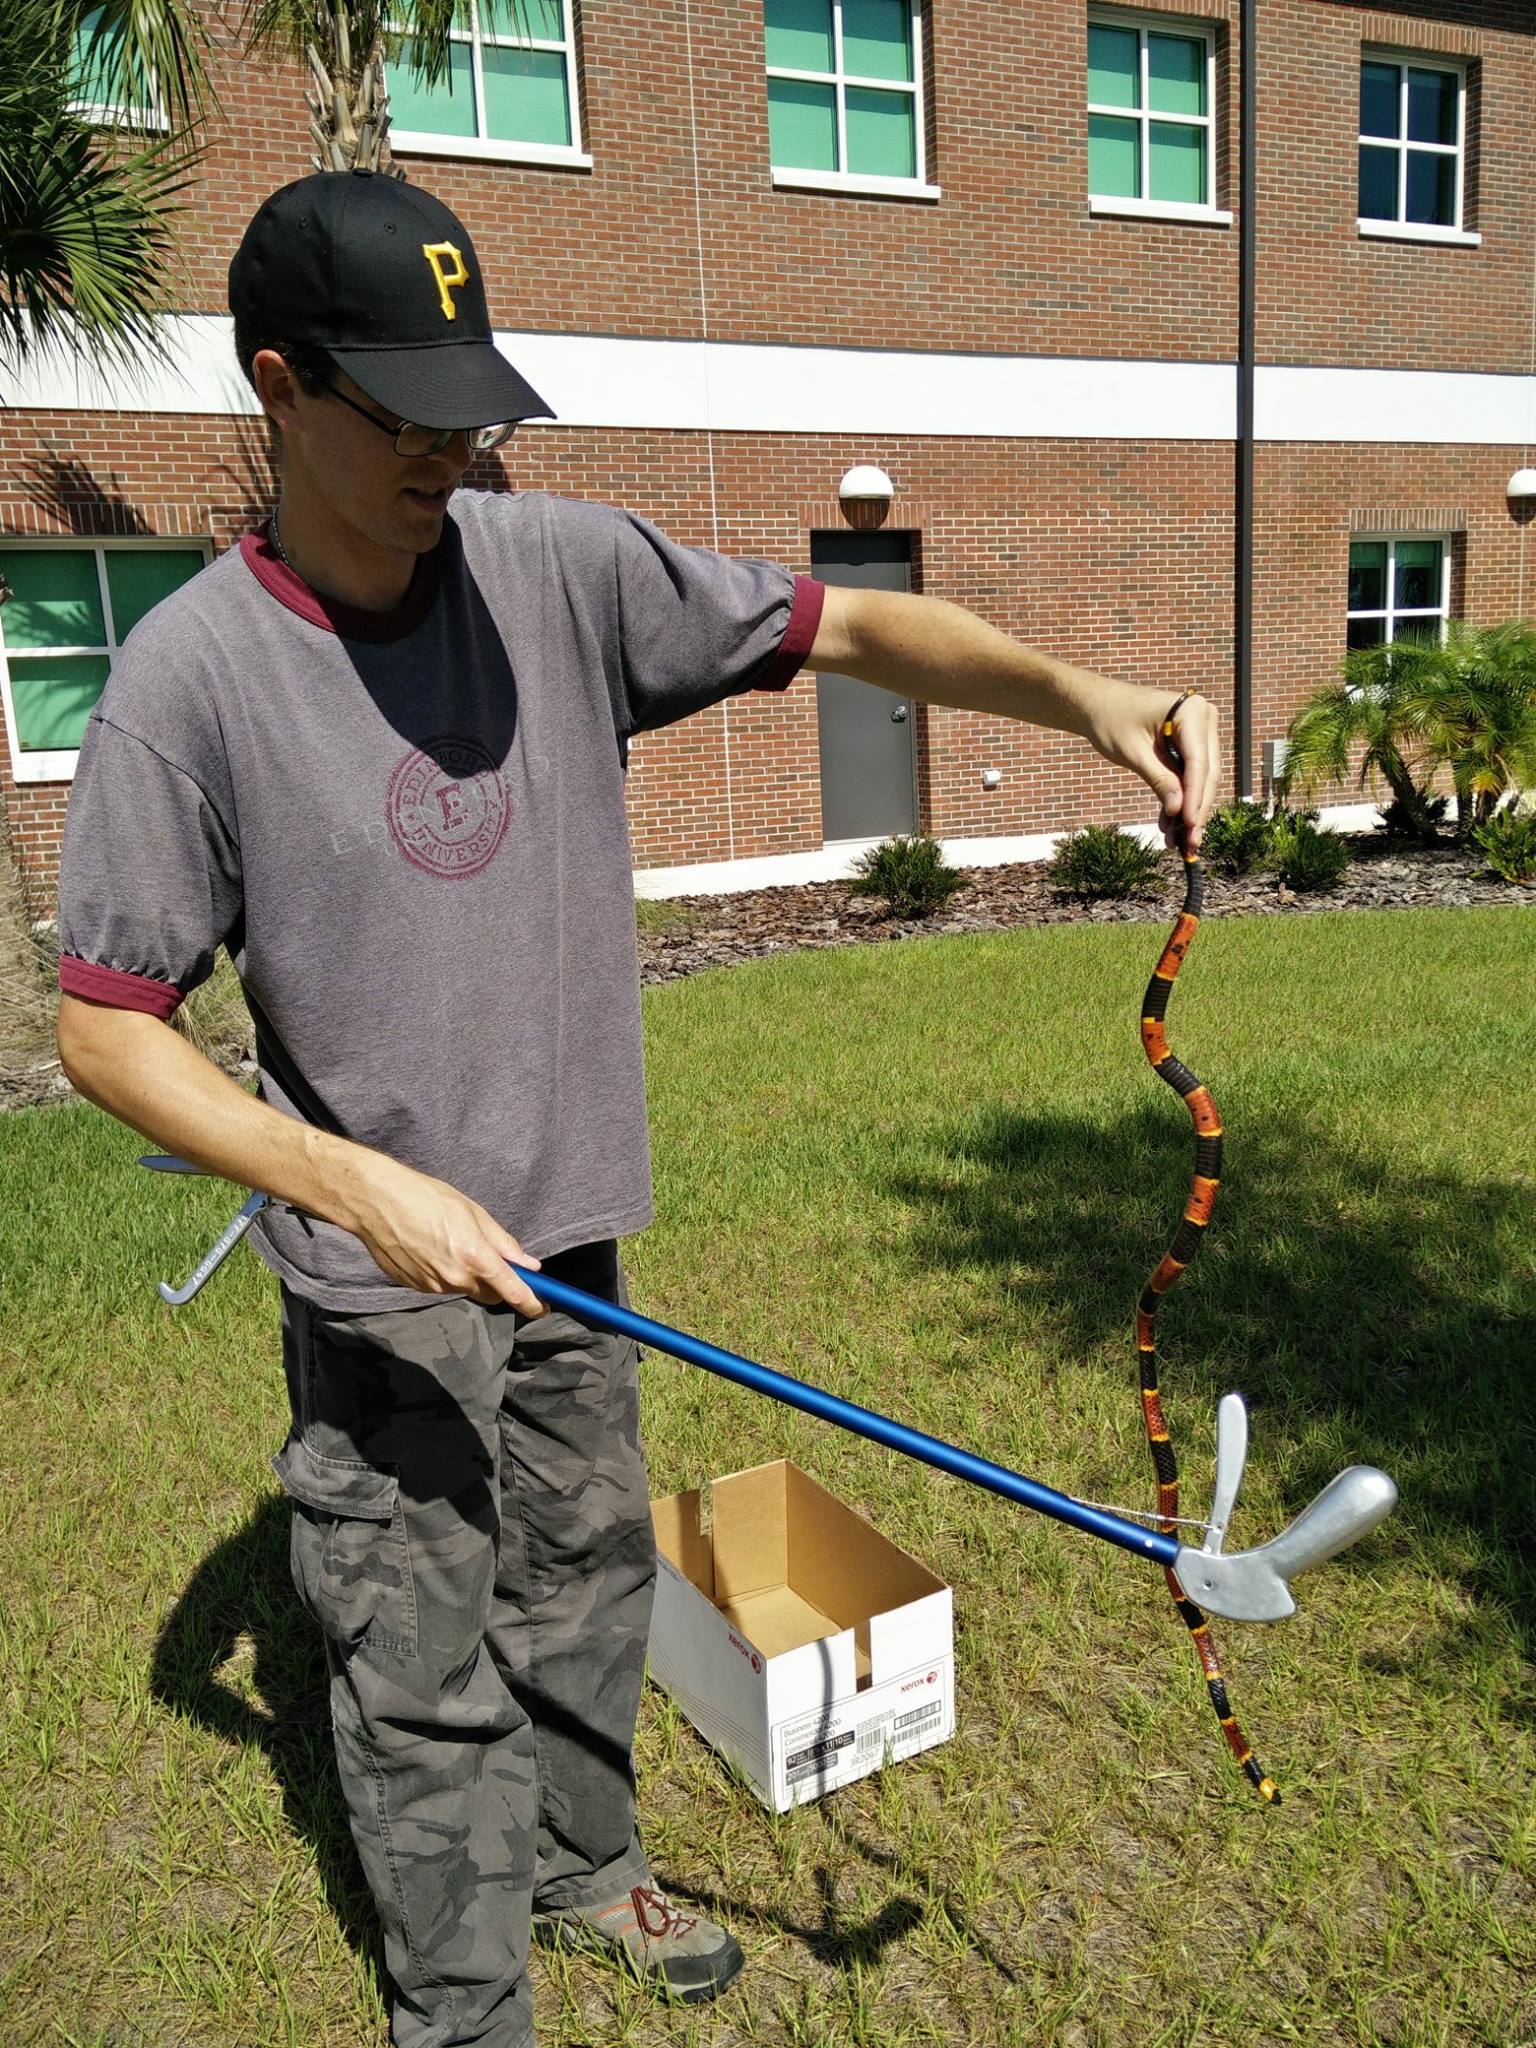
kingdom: Animalia
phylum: Chordata
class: Squamata
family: Elapidae
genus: Micrurus
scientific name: Micrurus fulvius
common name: Eastern coral snake
